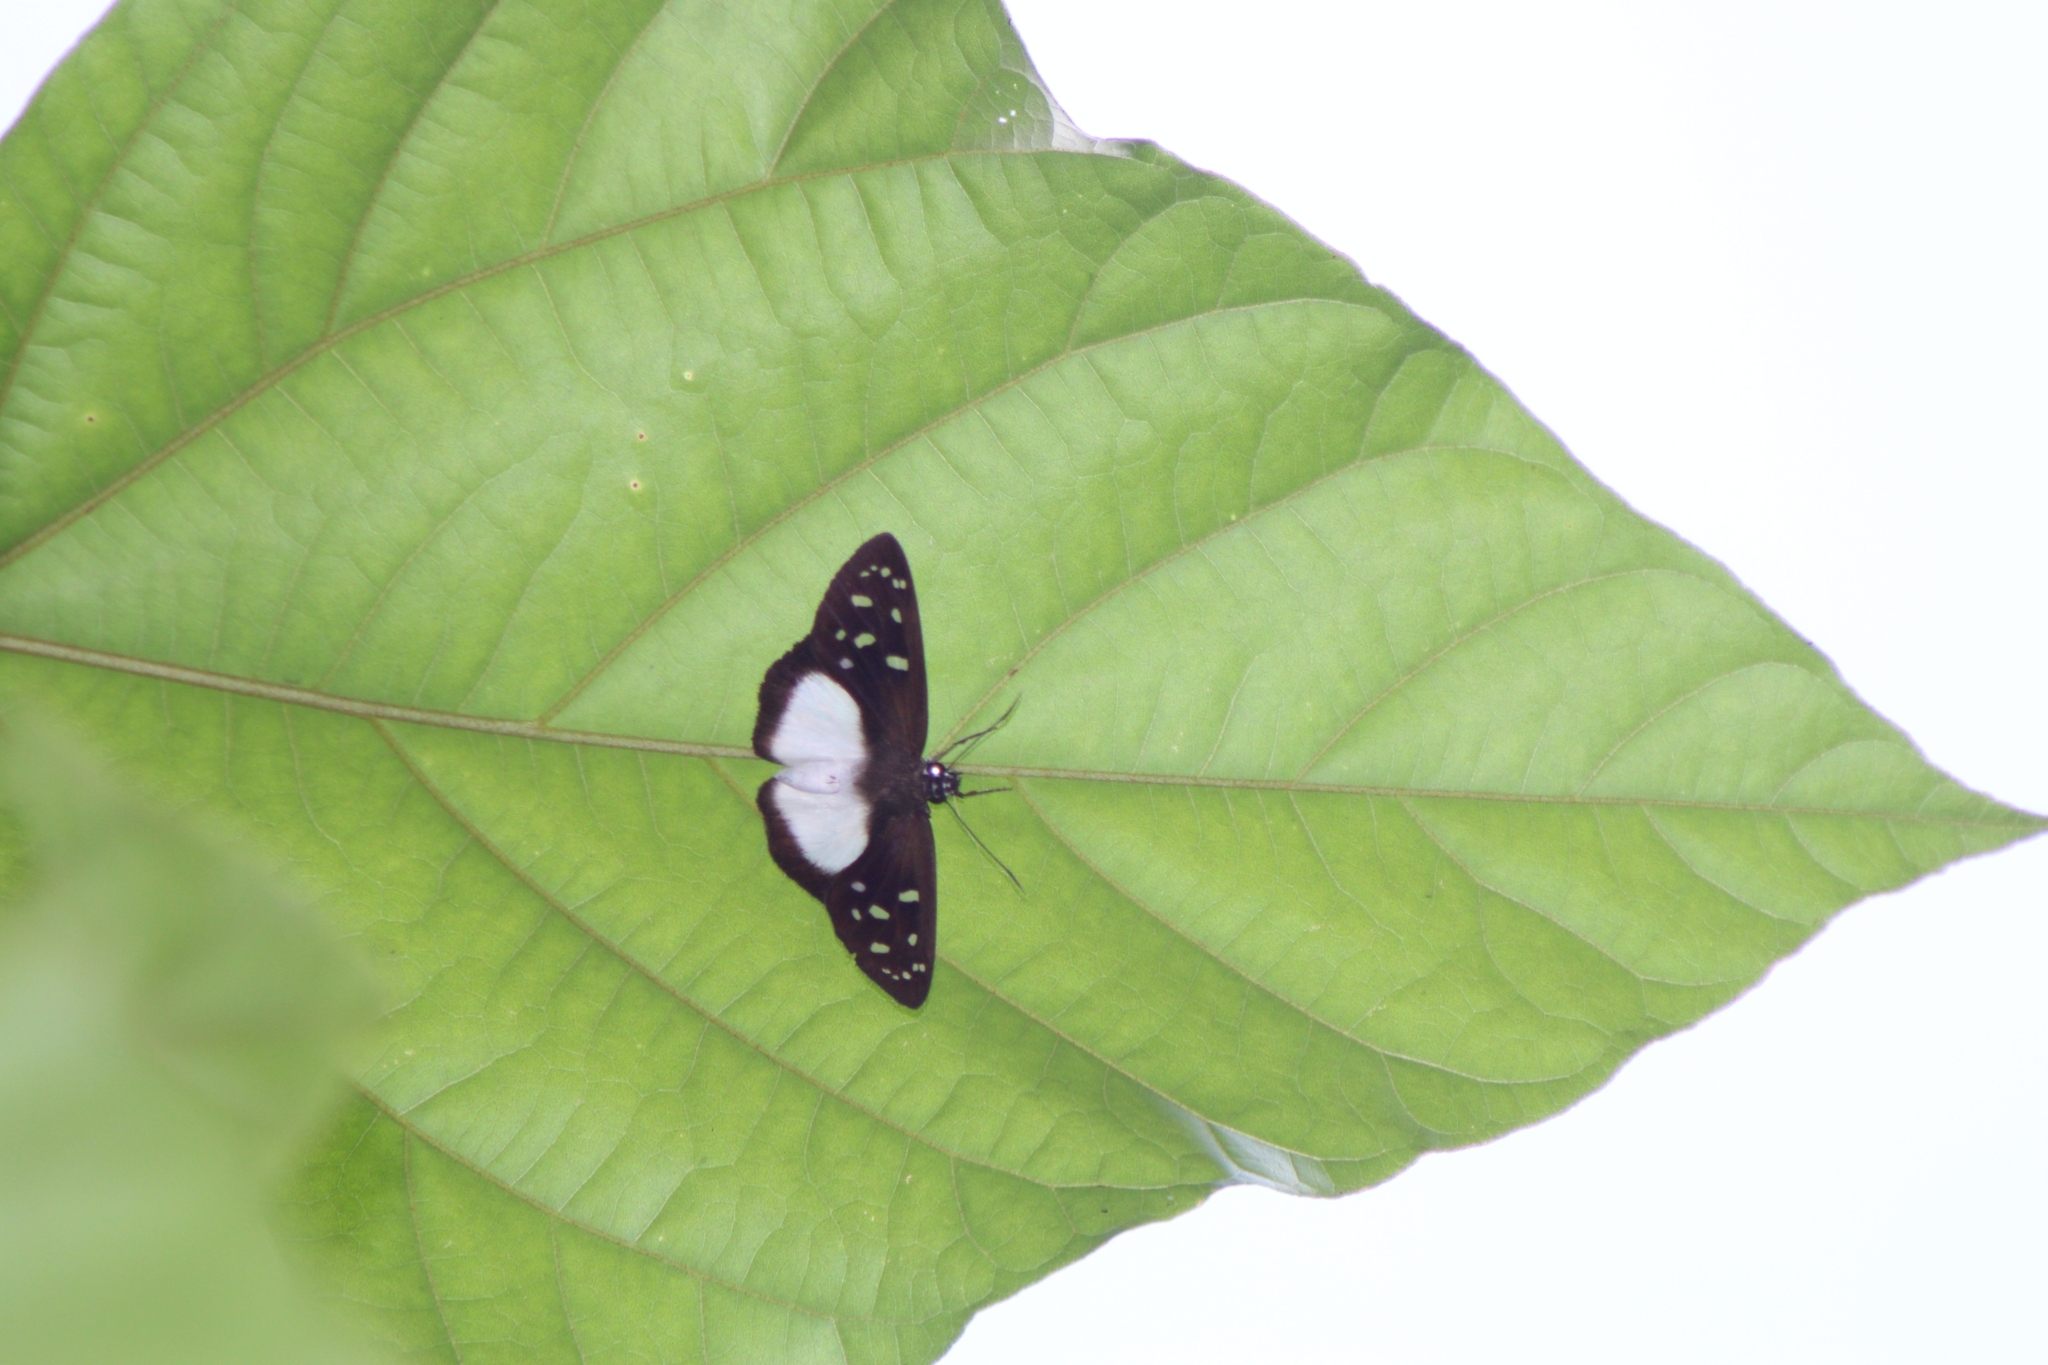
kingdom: Animalia
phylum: Arthropoda
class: Insecta
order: Lepidoptera
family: Hesperiidae
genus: Hyalothyrus
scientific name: Hyalothyrus neleus
